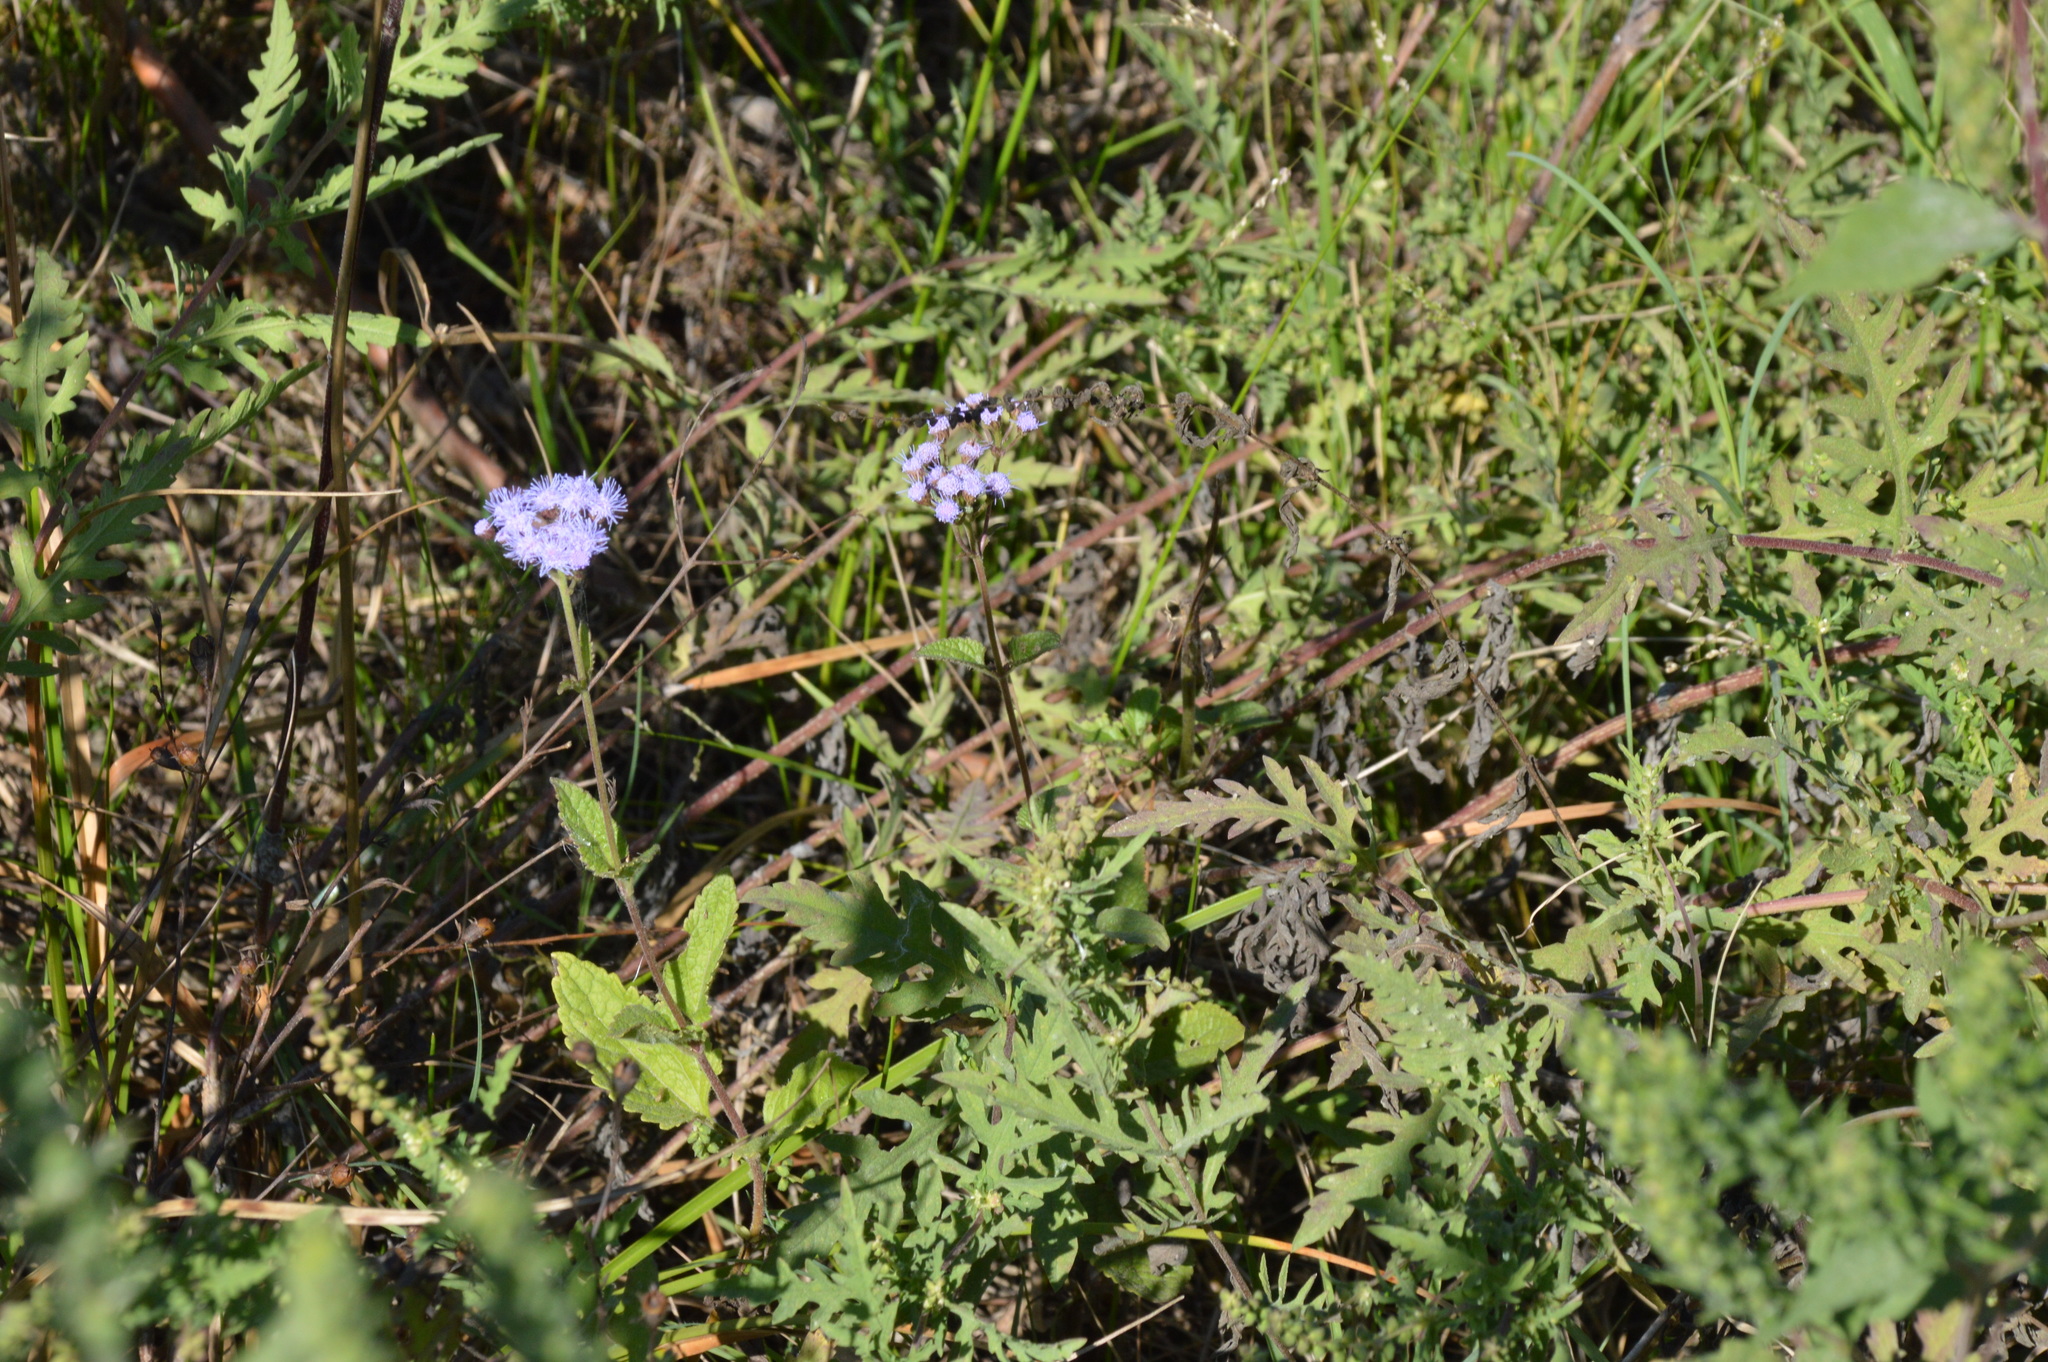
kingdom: Plantae
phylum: Tracheophyta
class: Magnoliopsida
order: Asterales
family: Asteraceae
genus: Conoclinium
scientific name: Conoclinium coelestinum
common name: Blue mistflower
